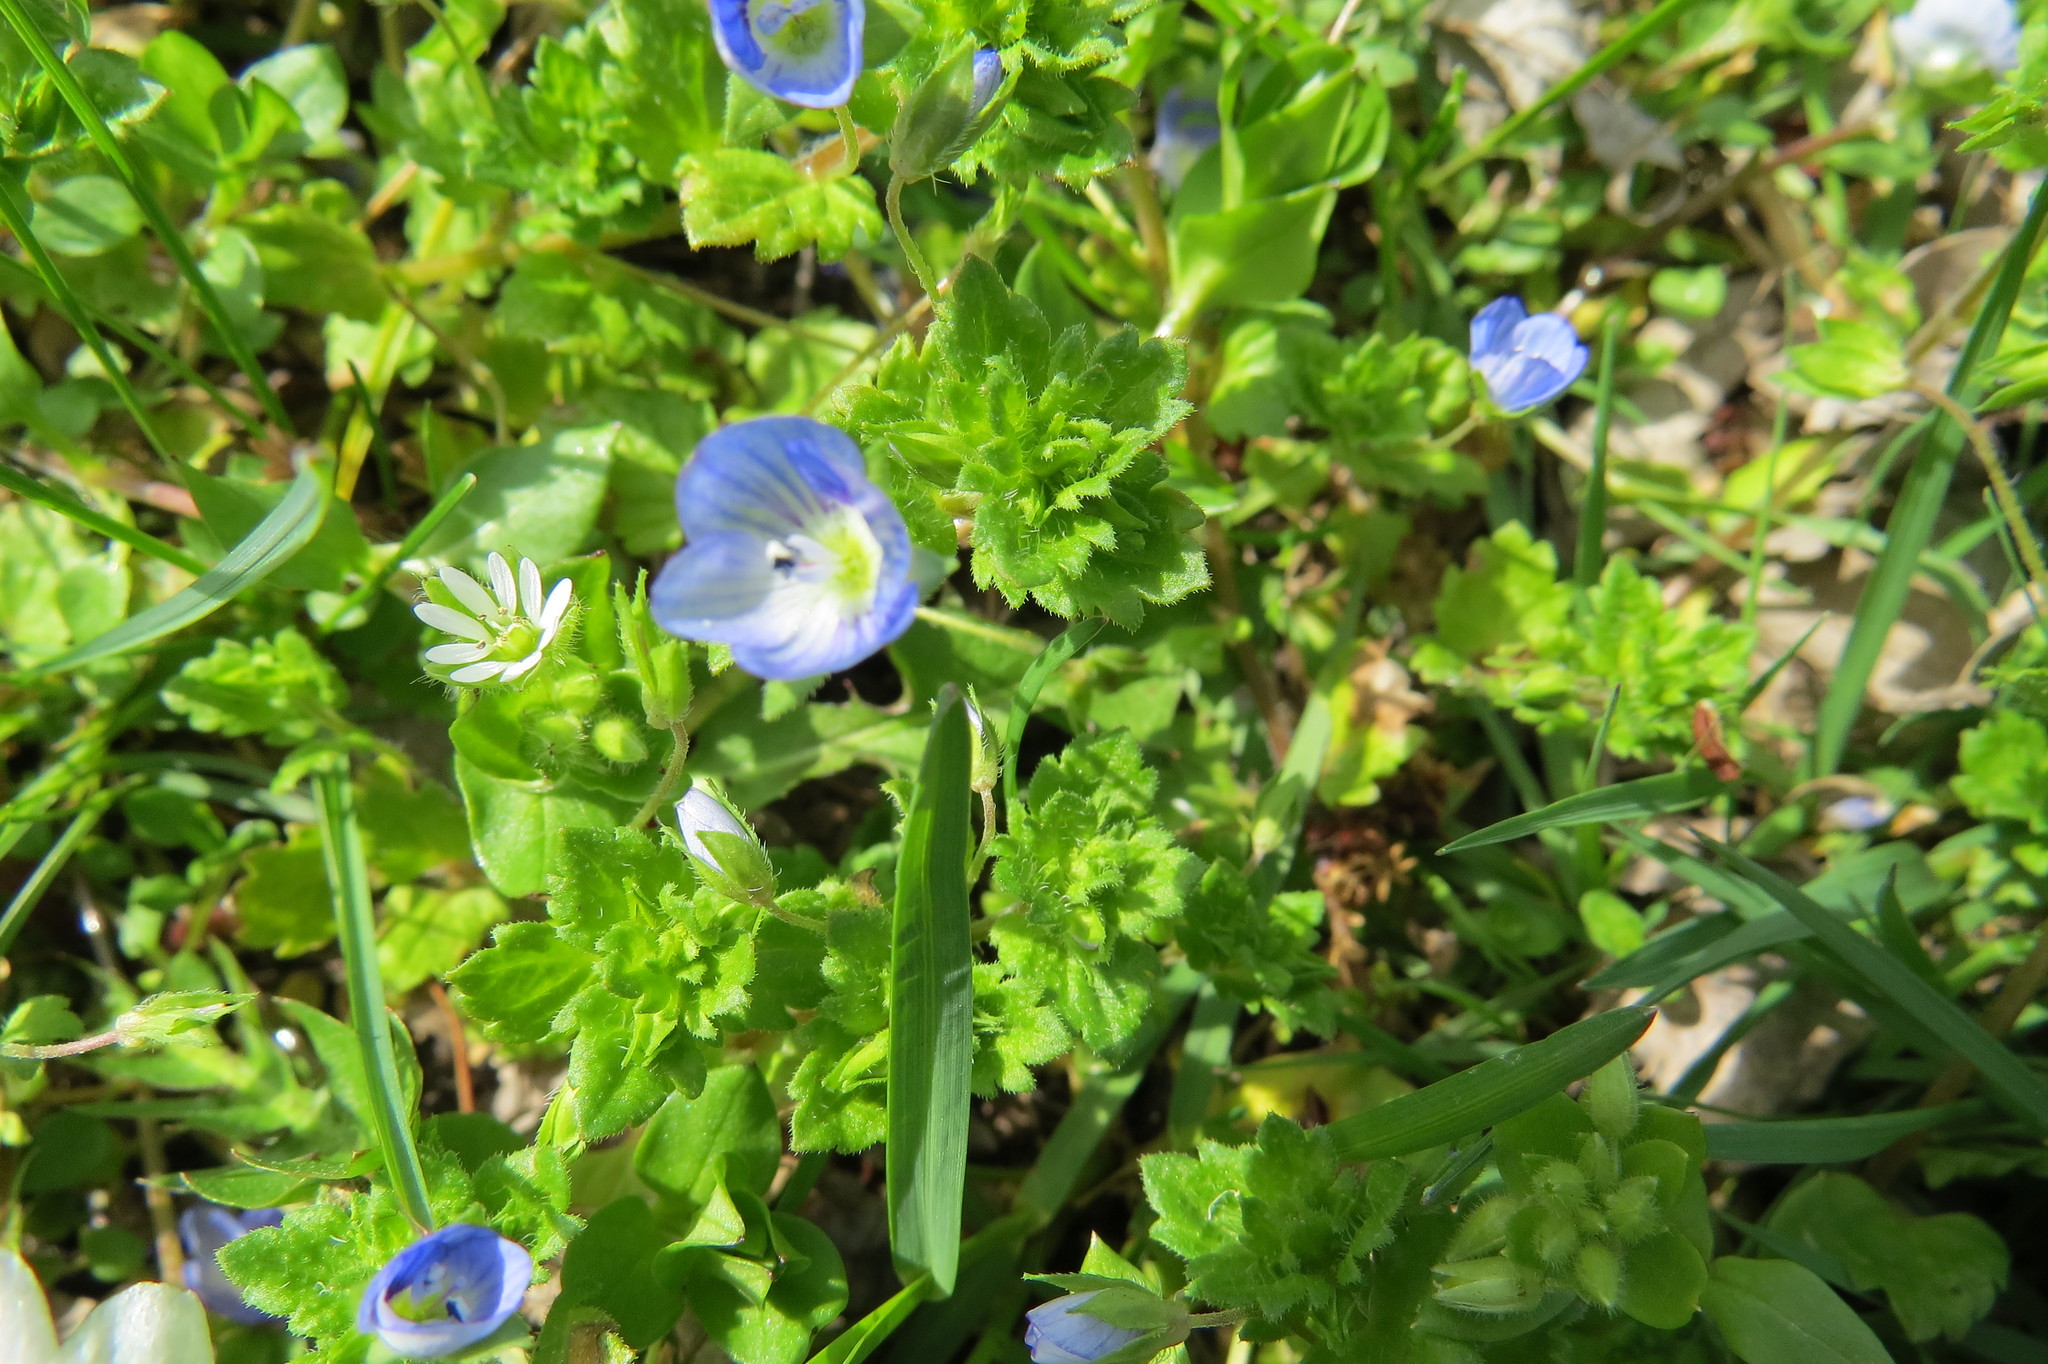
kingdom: Plantae
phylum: Tracheophyta
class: Magnoliopsida
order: Lamiales
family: Plantaginaceae
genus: Veronica
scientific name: Veronica persica
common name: Common field-speedwell
